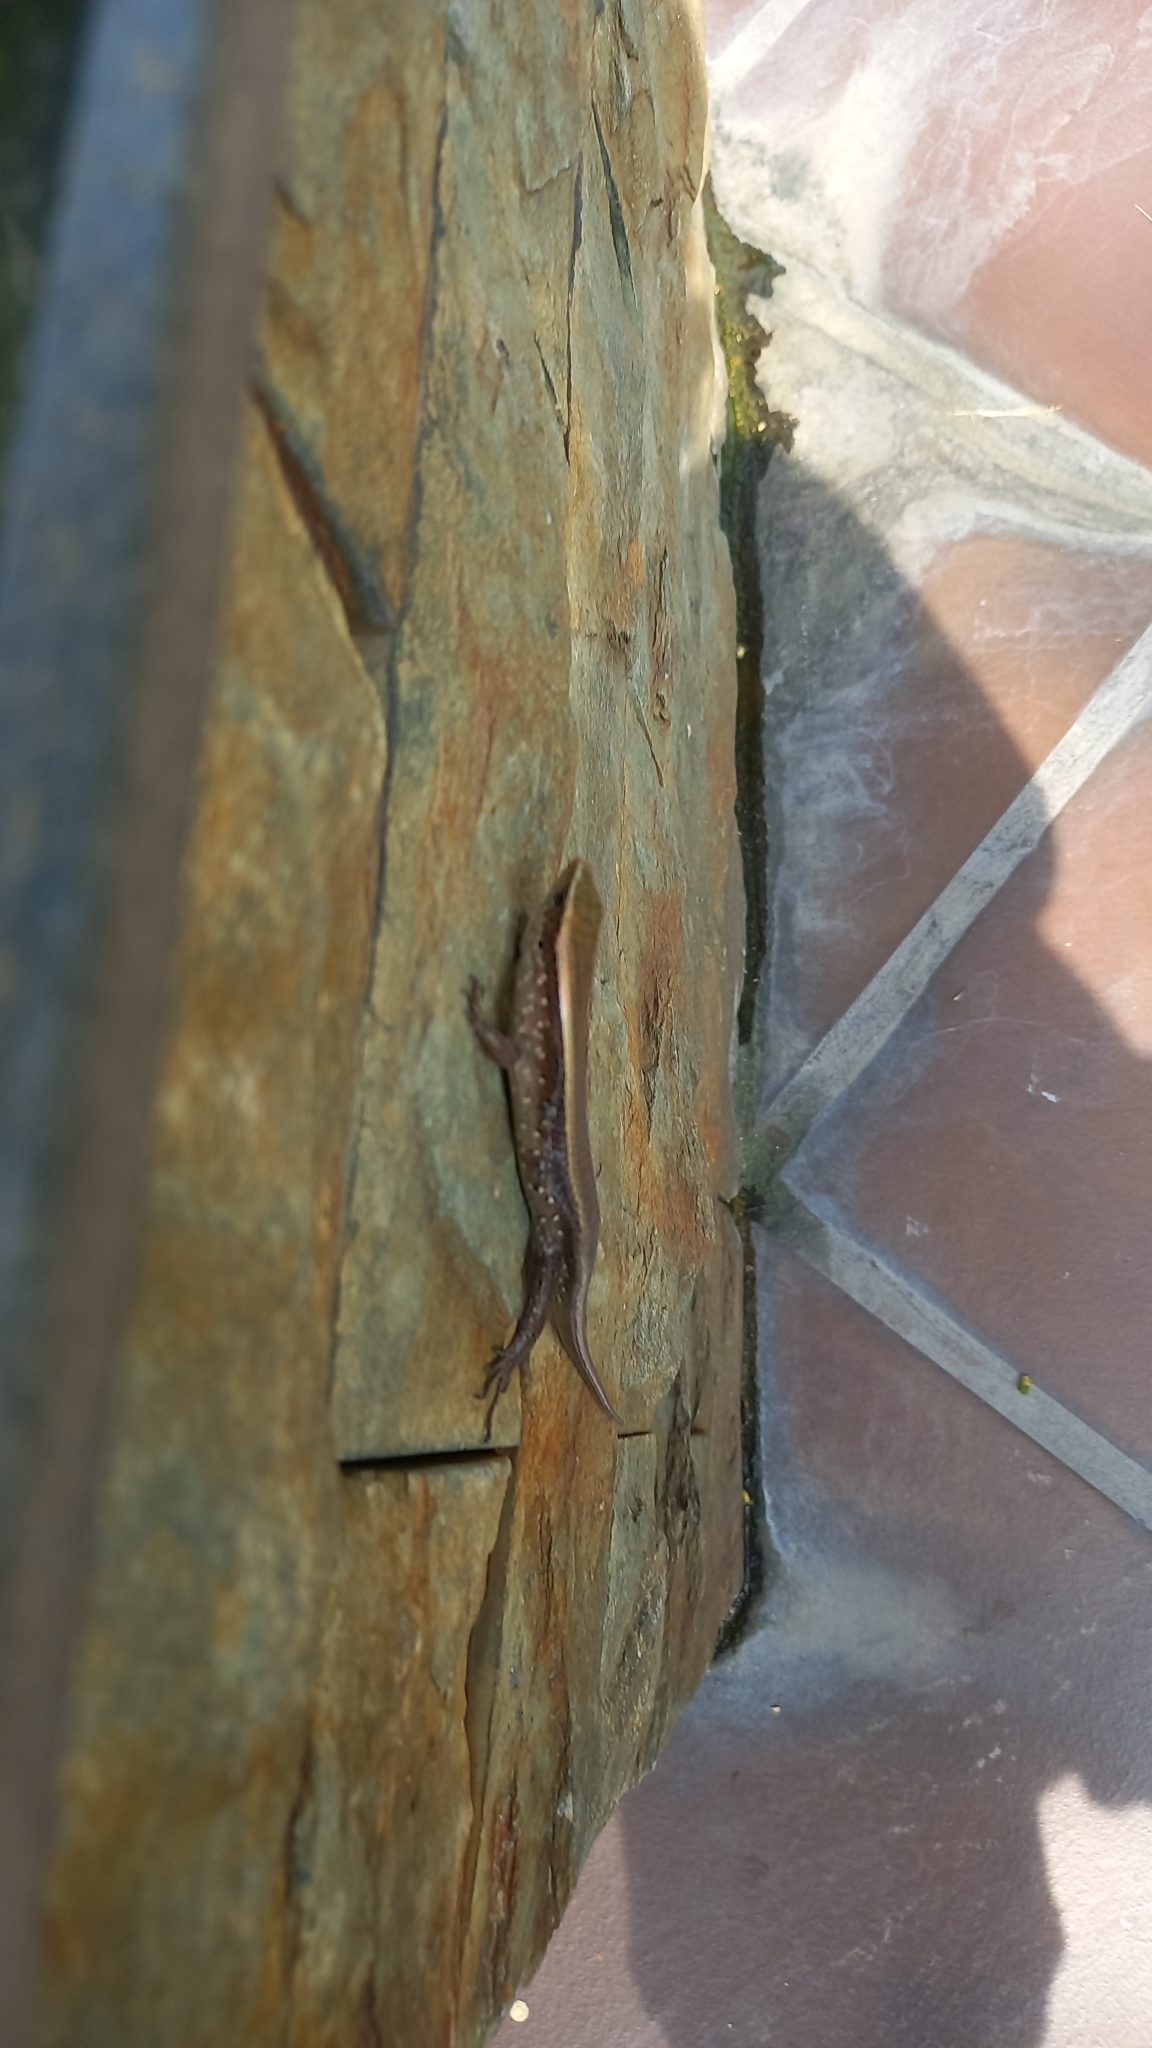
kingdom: Animalia
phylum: Chordata
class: Squamata
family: Scincidae
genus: Eutropis
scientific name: Eutropis multifasciata
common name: Common mabuya
